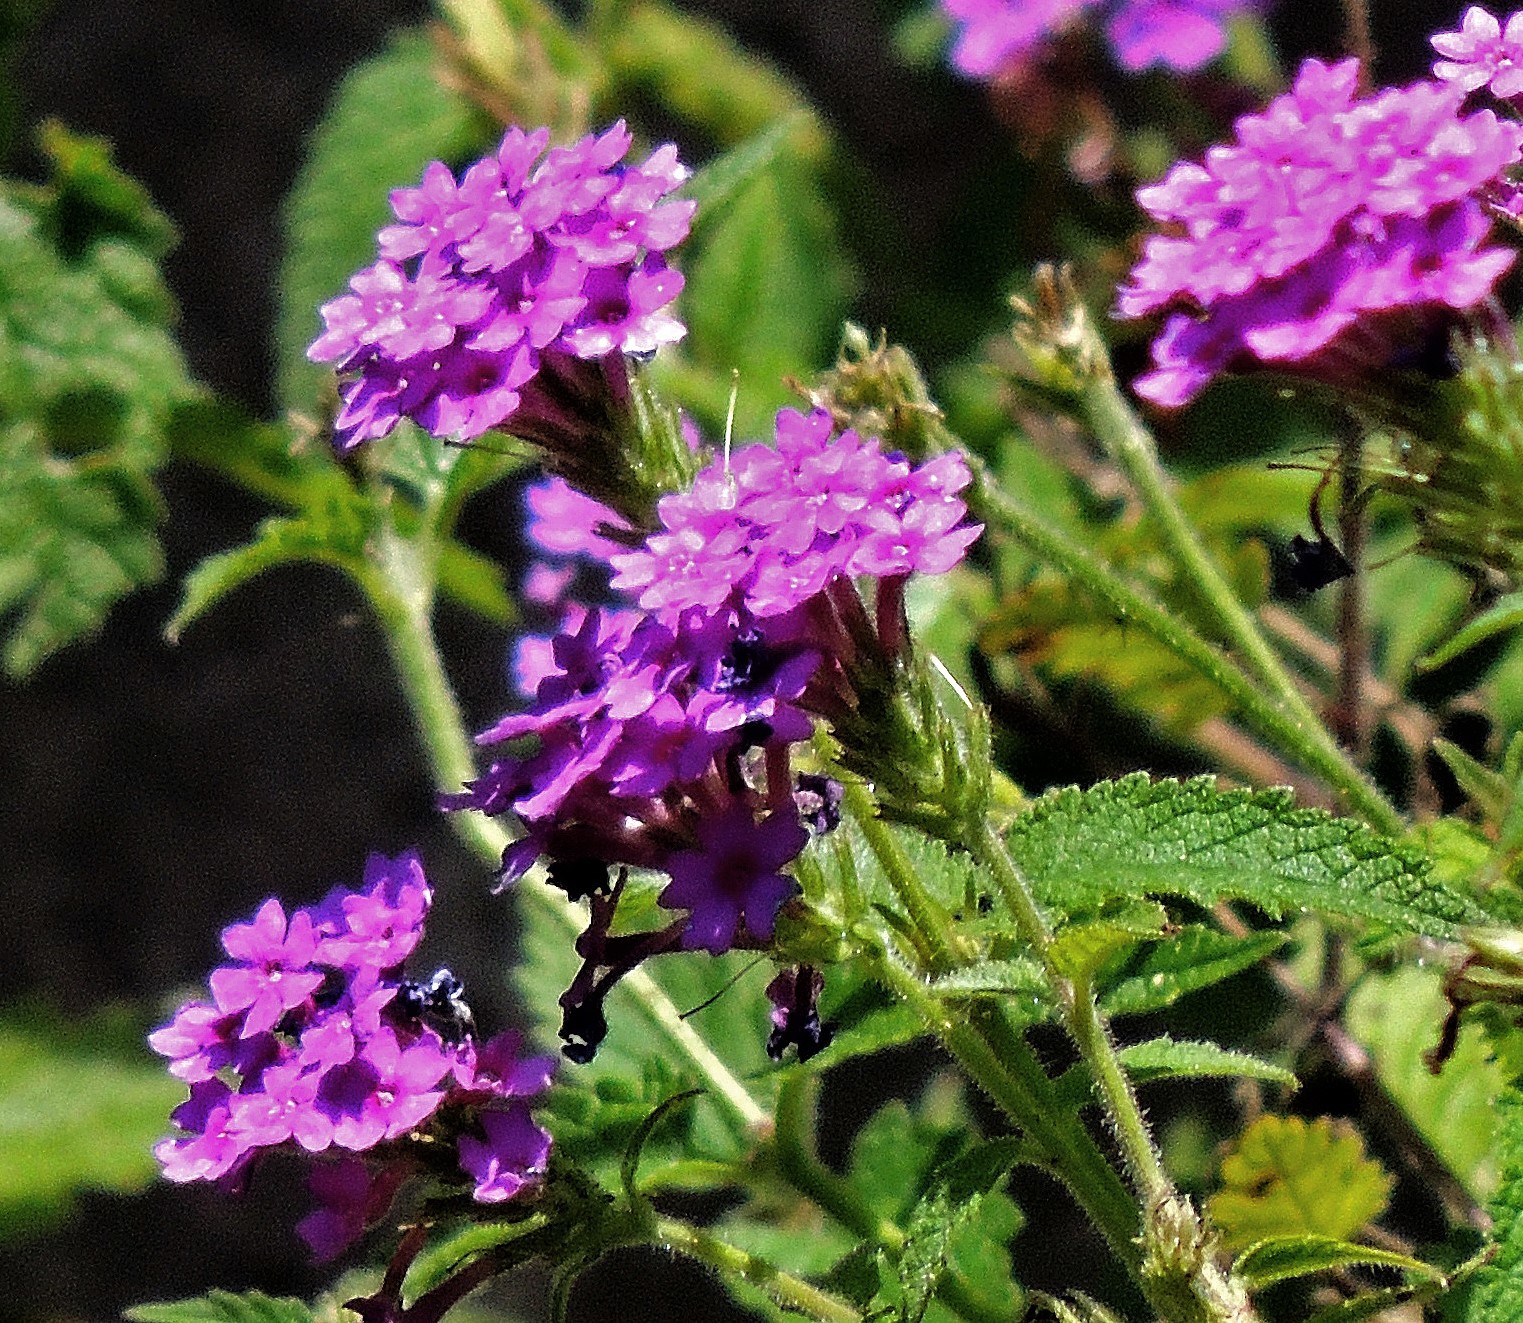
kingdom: Plantae
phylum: Tracheophyta
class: Magnoliopsida
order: Lamiales
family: Verbenaceae
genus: Verbena
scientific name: Verbena scrobiculata
